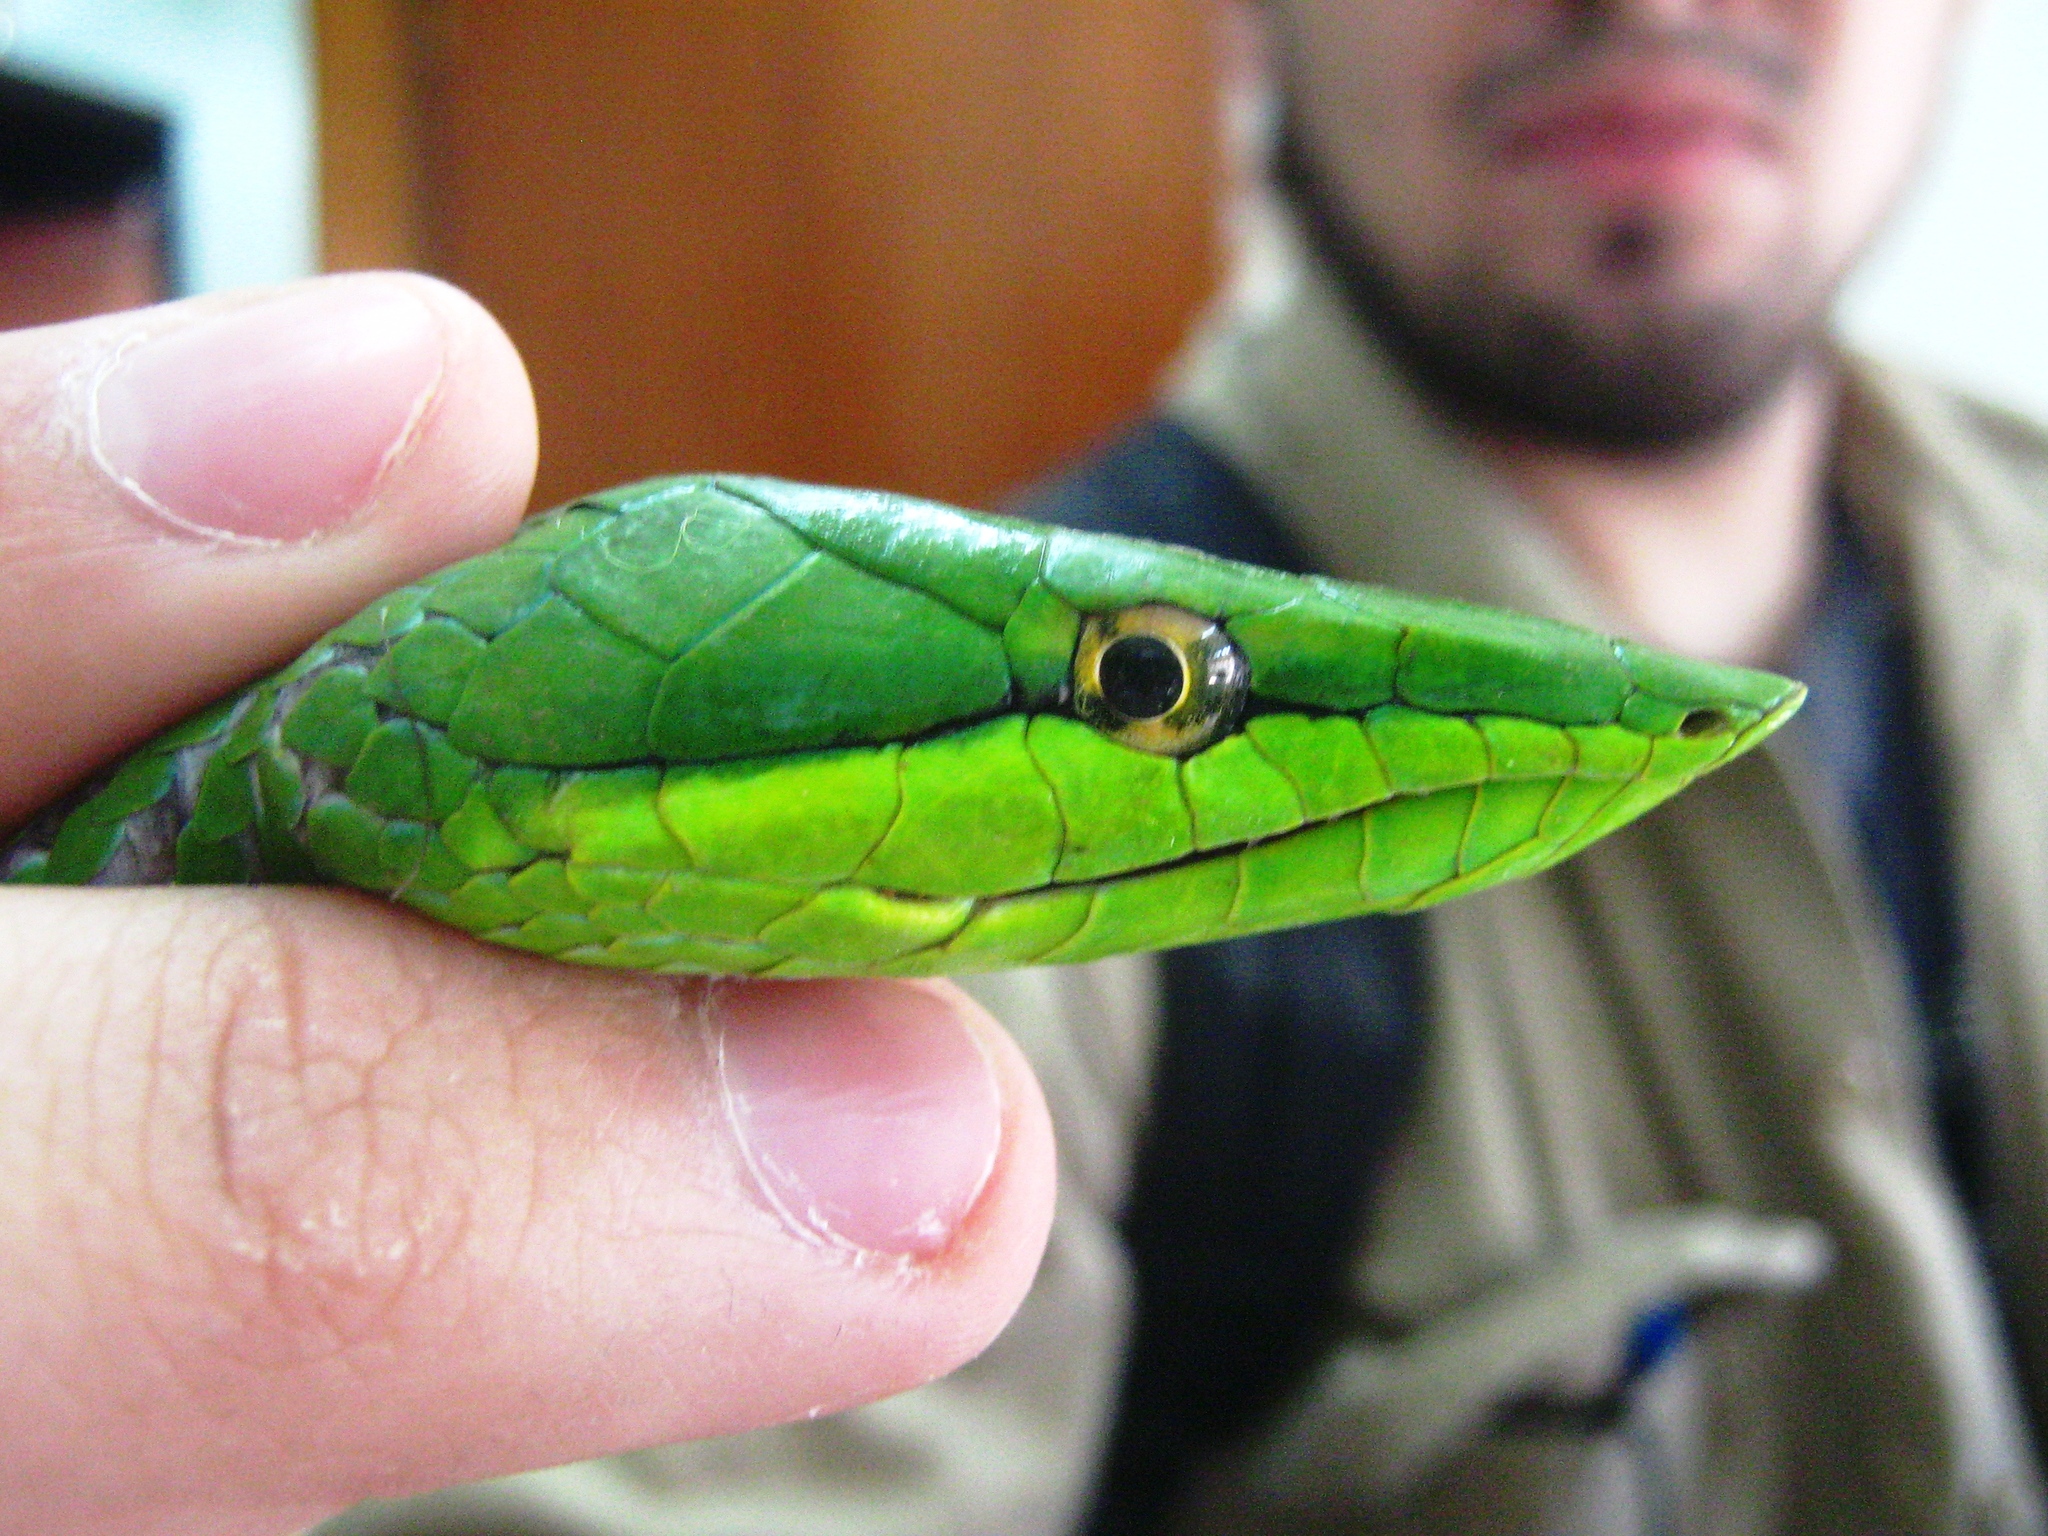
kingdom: Animalia
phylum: Chordata
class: Squamata
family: Colubridae
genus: Oxybelis
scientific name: Oxybelis fulgidus
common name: Green vine snake
